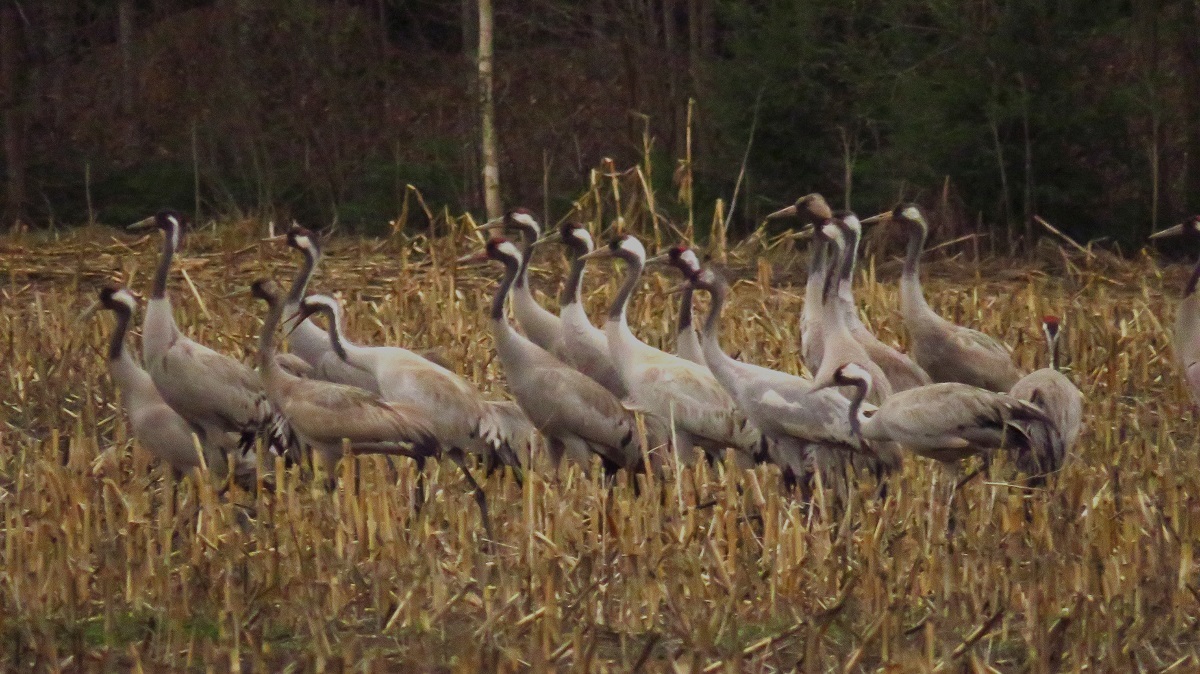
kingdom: Animalia
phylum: Chordata
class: Aves
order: Gruiformes
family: Gruidae
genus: Grus
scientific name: Grus grus
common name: Common crane
